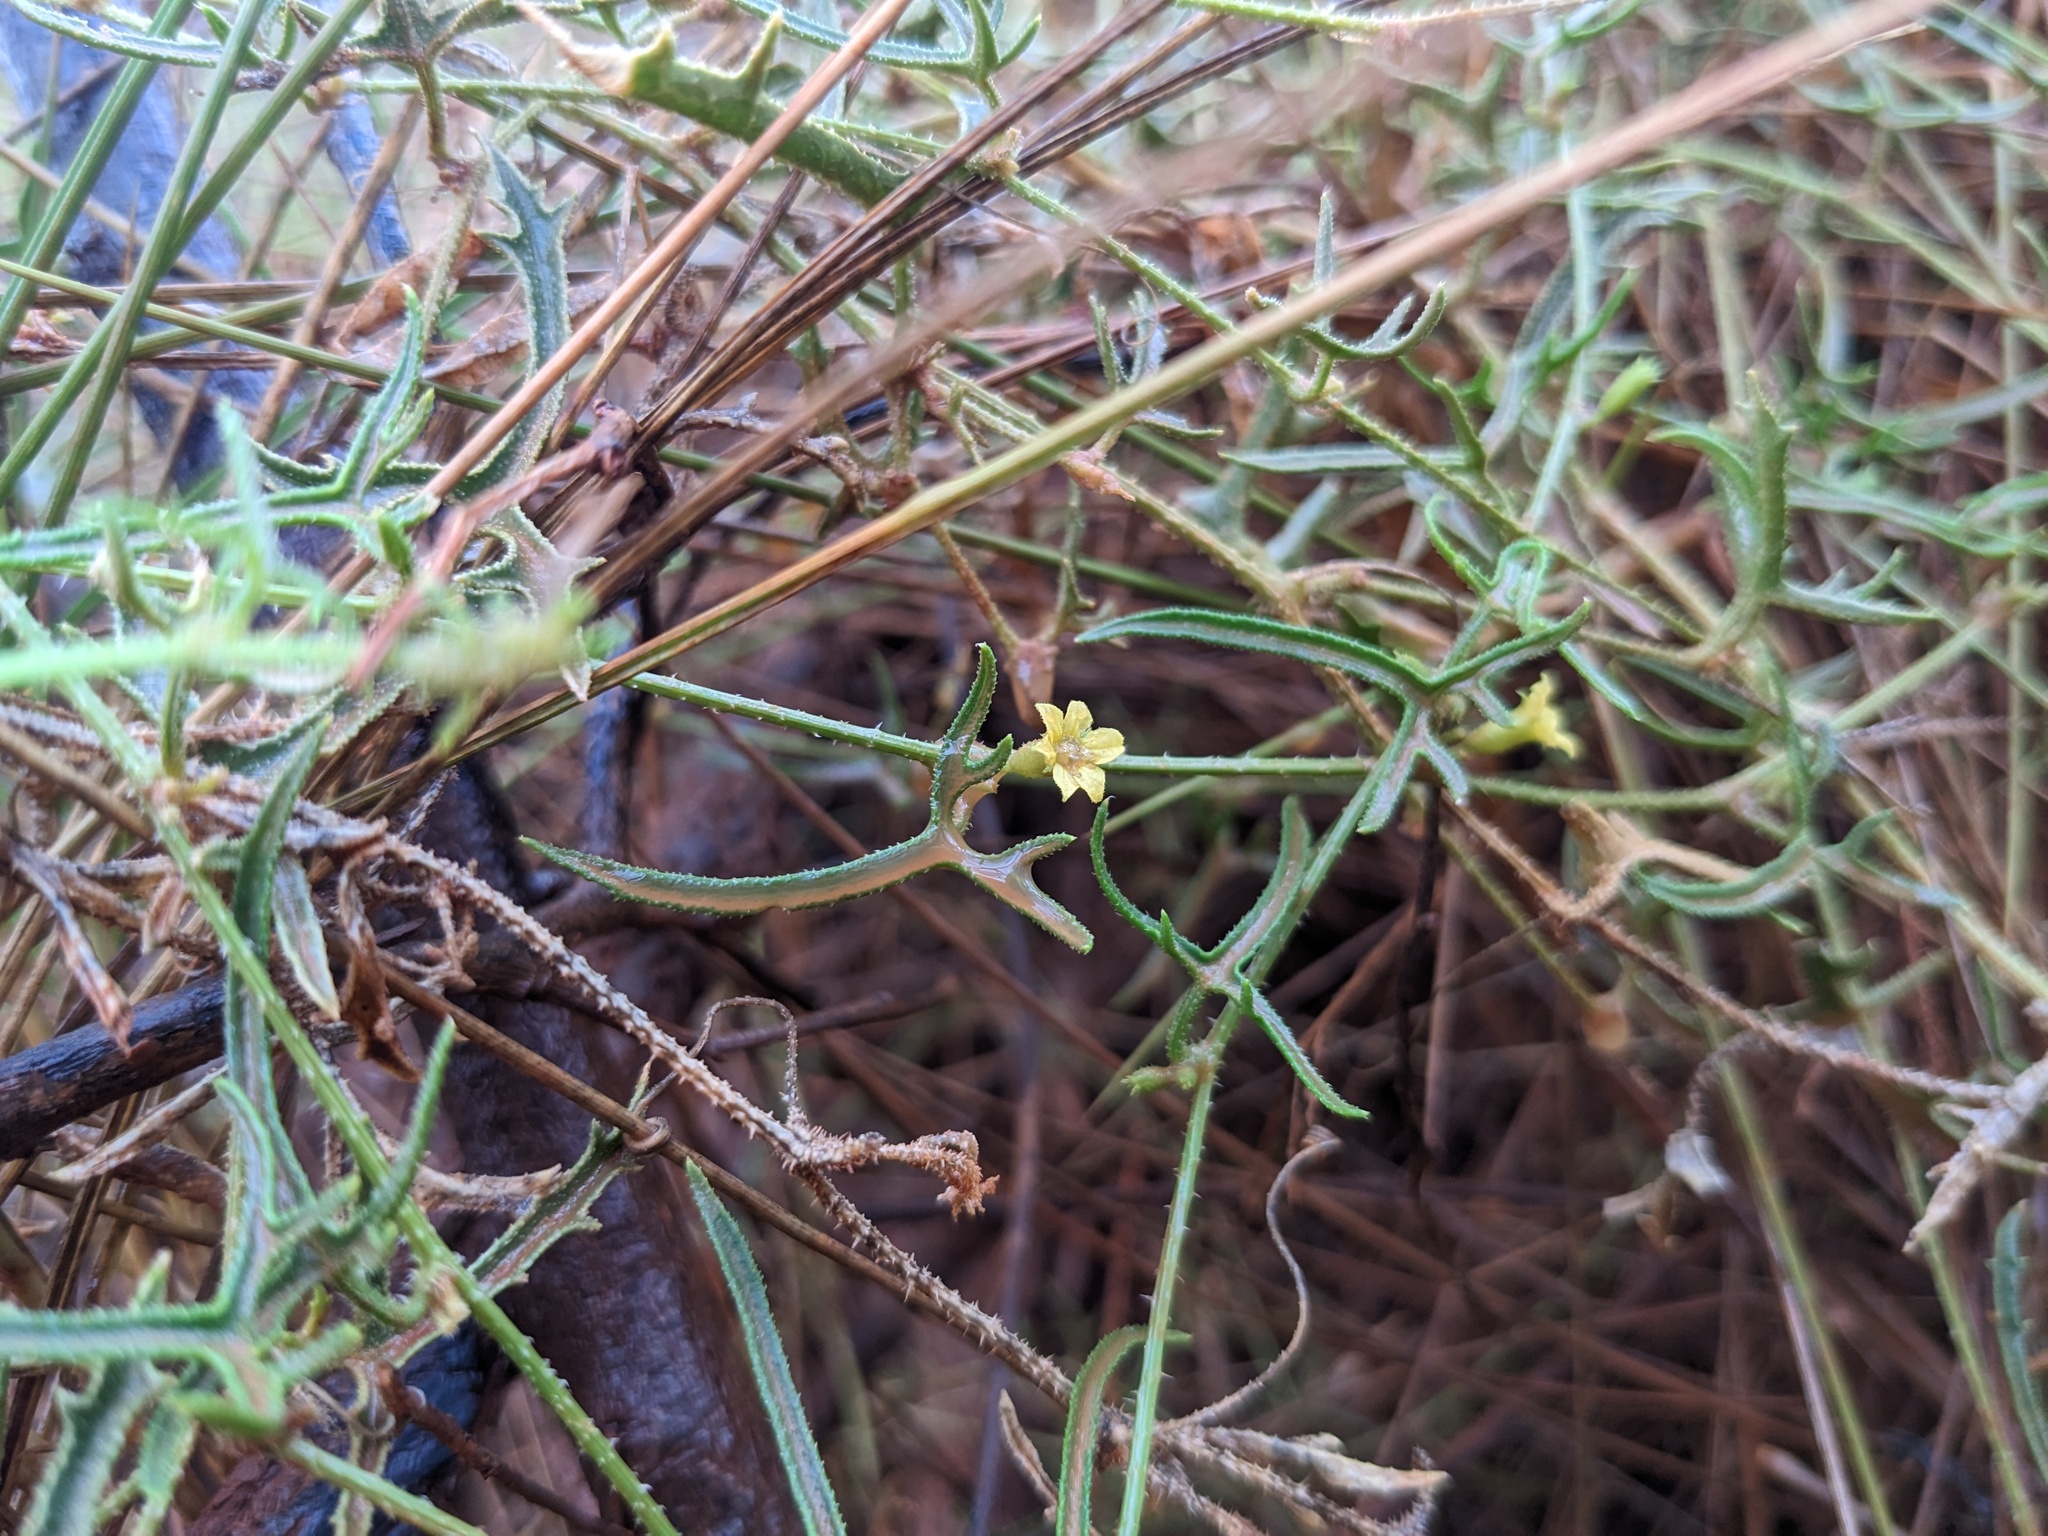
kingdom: Plantae
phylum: Tracheophyta
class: Magnoliopsida
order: Cucurbitales
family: Cucurbitaceae
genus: Cucumis
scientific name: Cucumis variabilis
